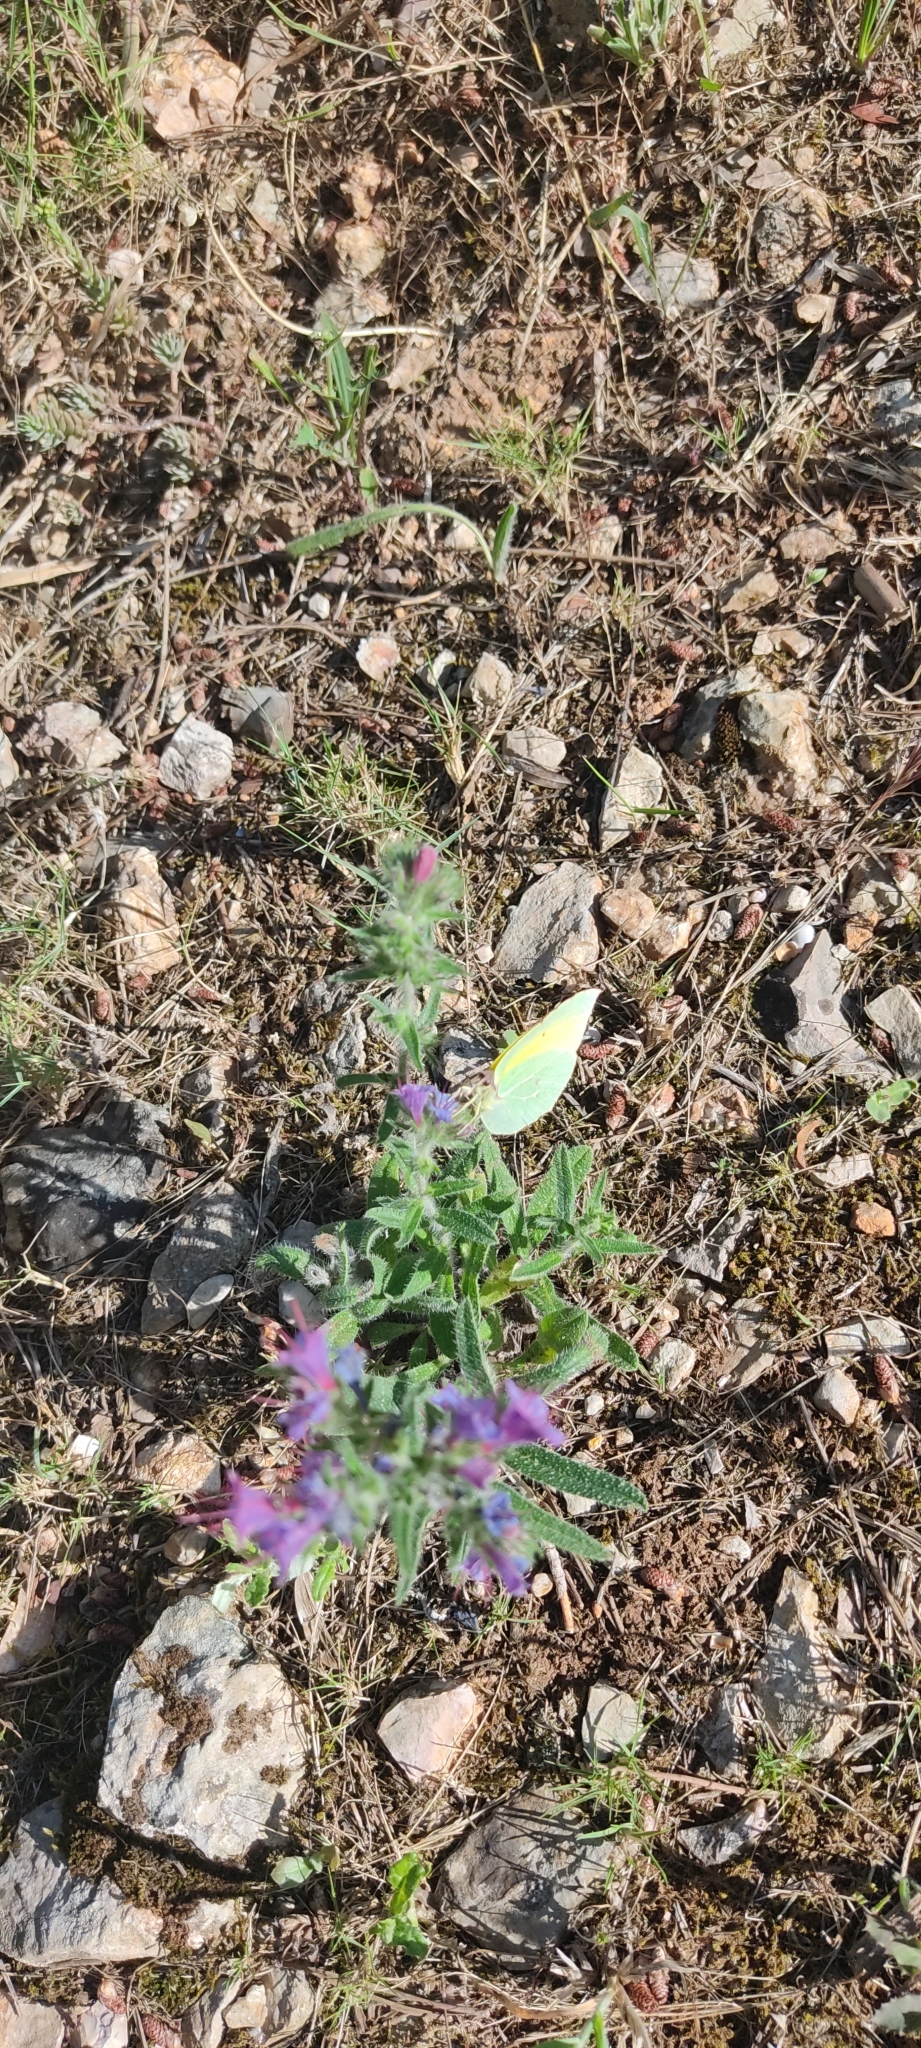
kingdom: Animalia
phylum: Arthropoda
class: Insecta
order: Lepidoptera
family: Pieridae
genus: Gonepteryx
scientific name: Gonepteryx cleopatra
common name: Cleopatra
